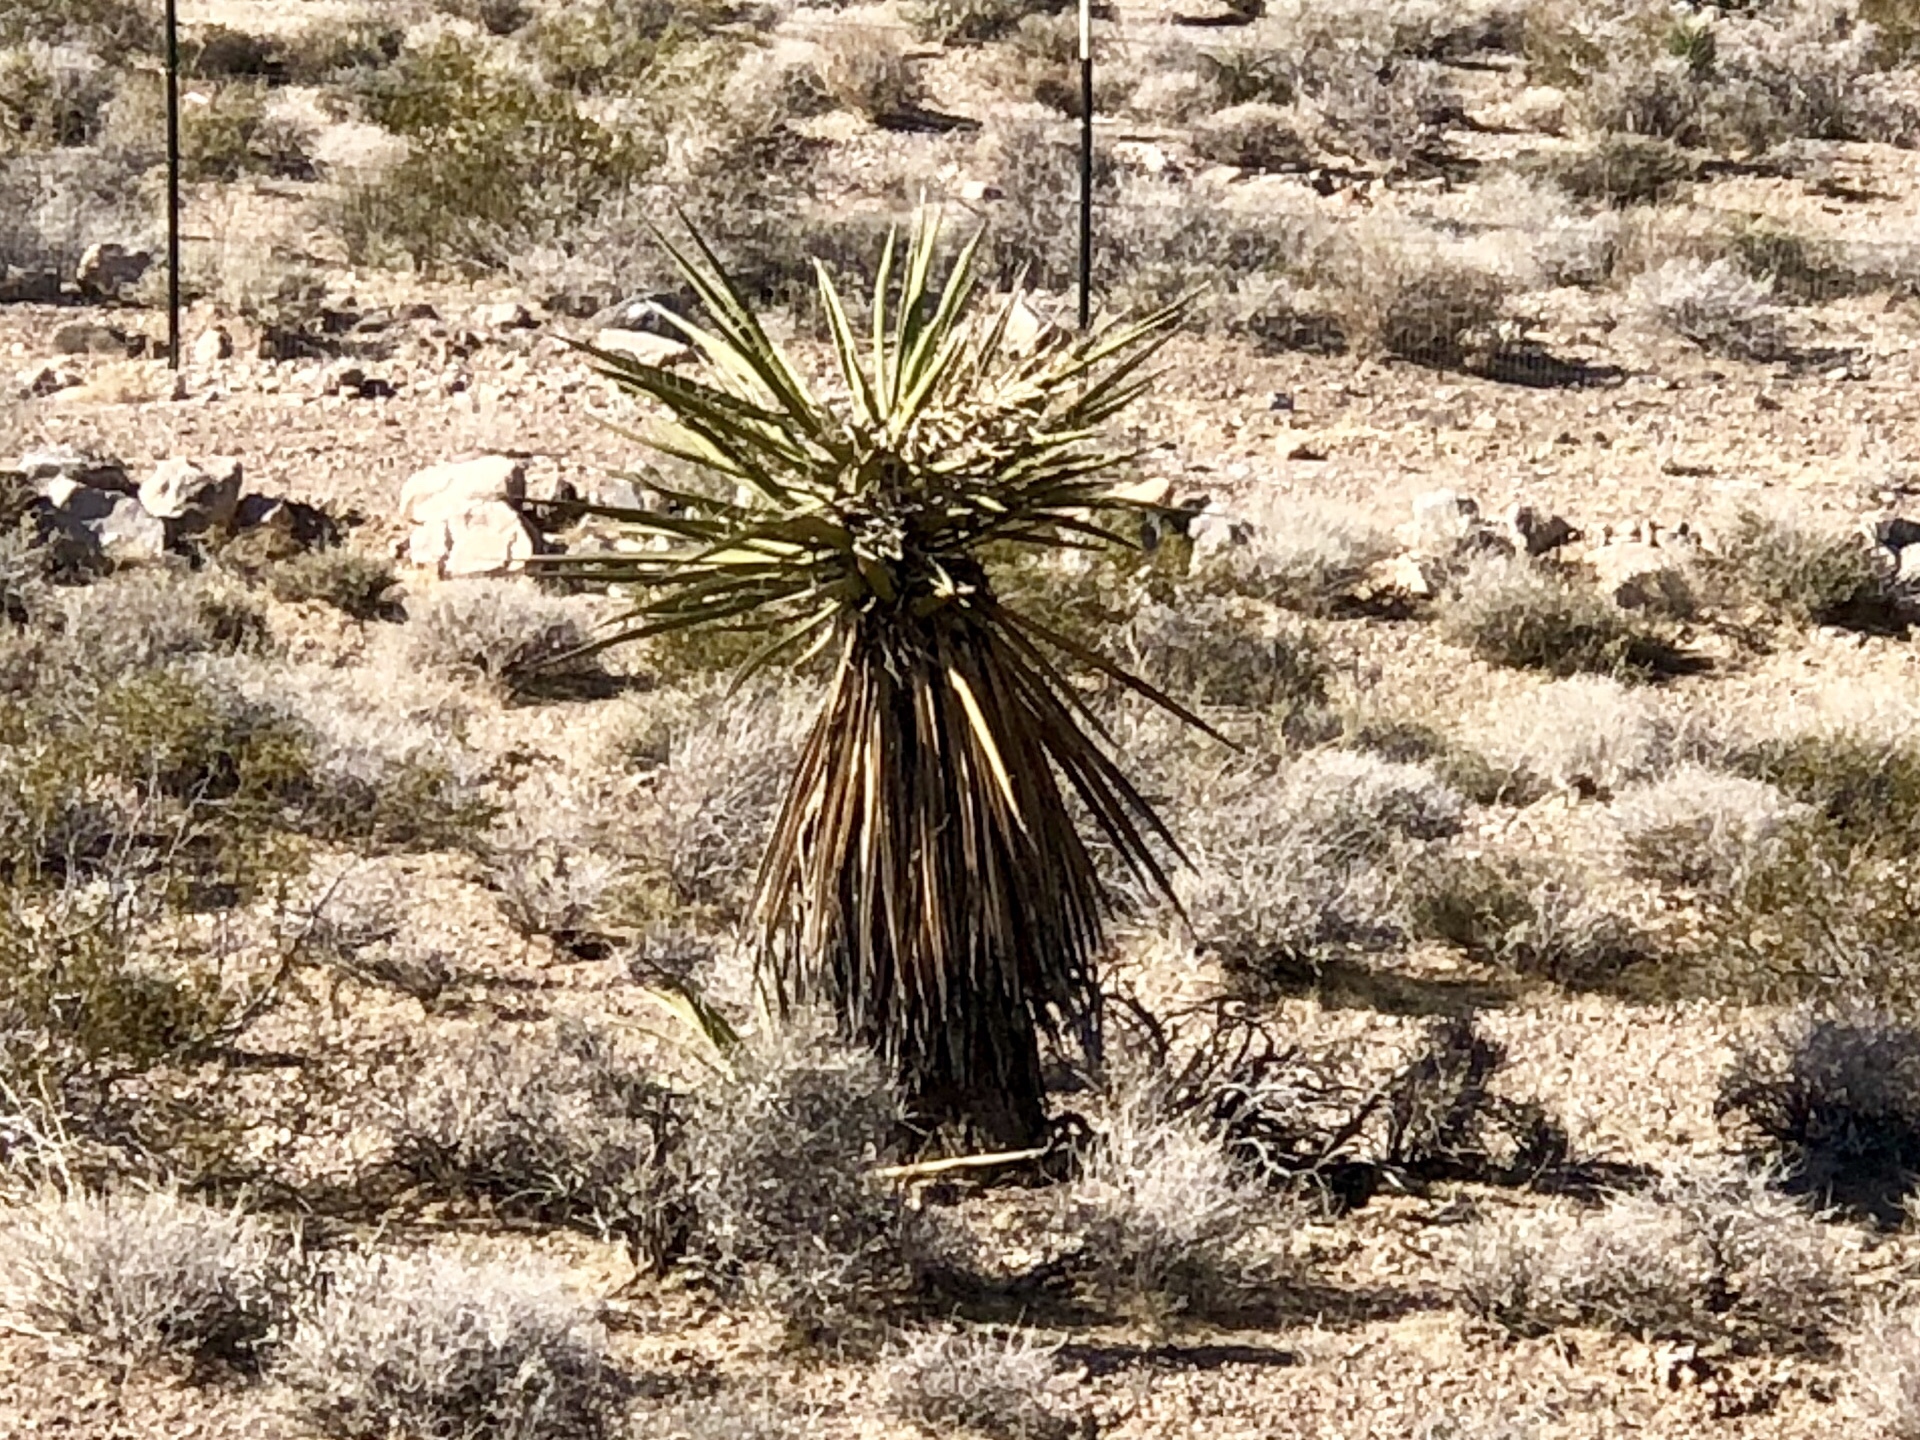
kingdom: Plantae
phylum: Tracheophyta
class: Liliopsida
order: Asparagales
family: Asparagaceae
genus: Yucca
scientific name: Yucca schidigera
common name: Mojave yucca
